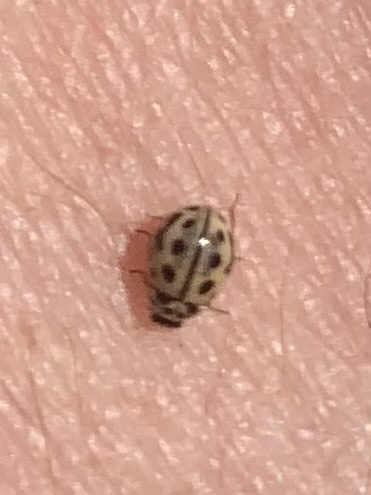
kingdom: Animalia
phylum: Arthropoda
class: Insecta
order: Coleoptera
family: Coccinellidae
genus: Tytthaspis
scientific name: Tytthaspis sedecimpunctata
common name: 16-spot ladybird
